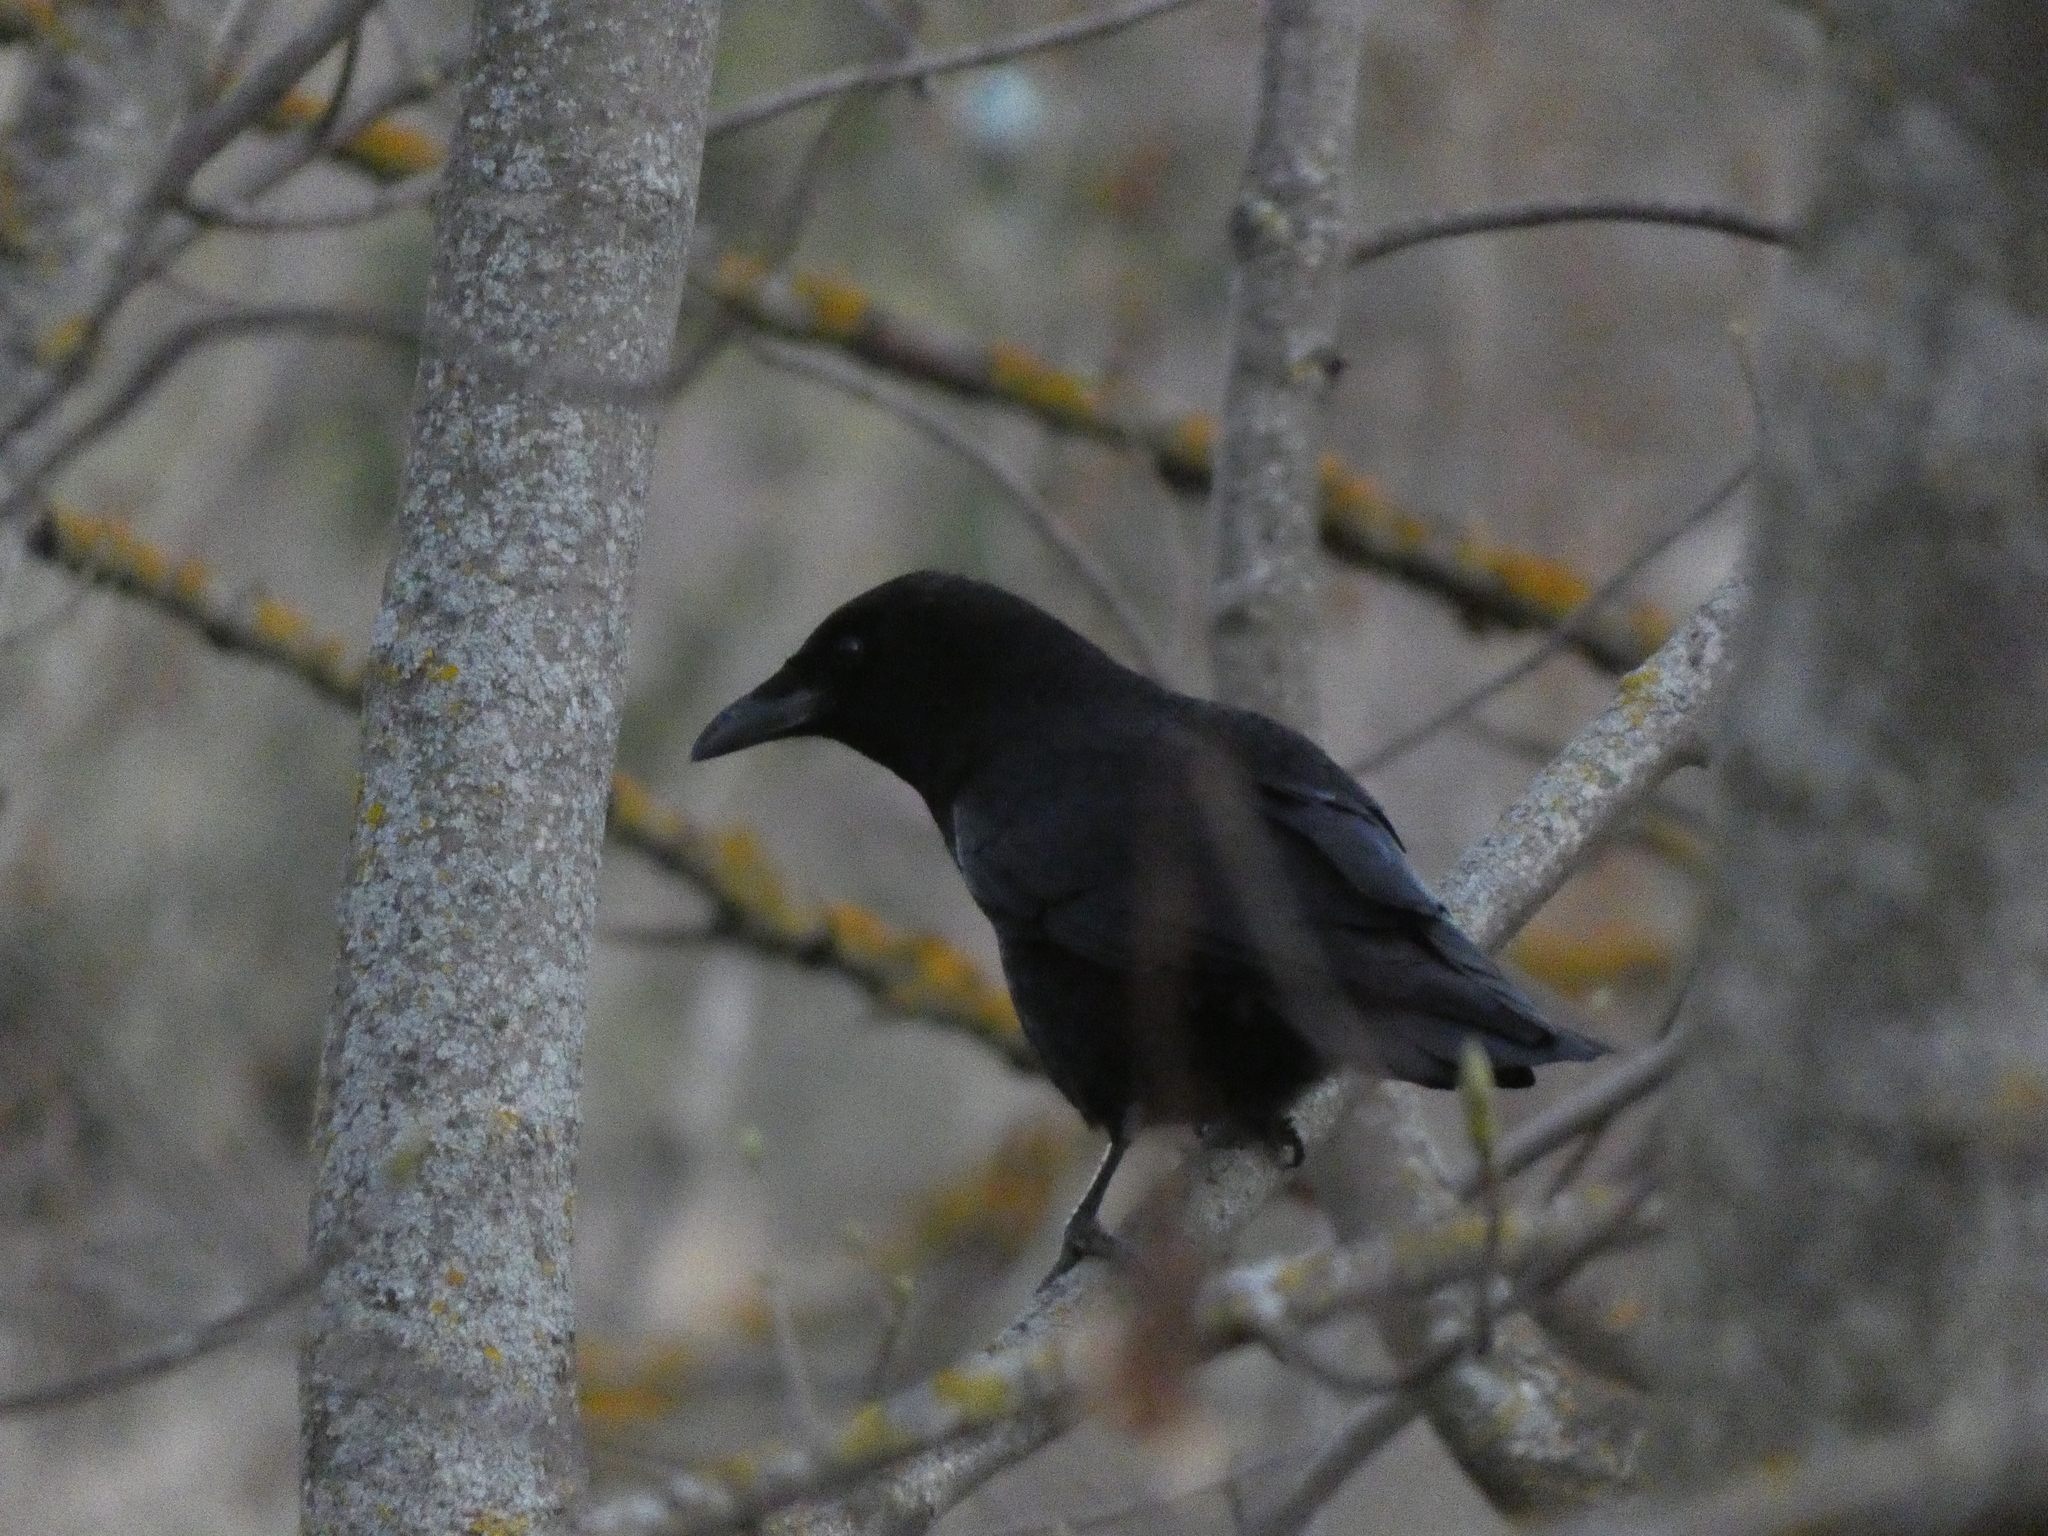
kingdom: Animalia
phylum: Chordata
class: Aves
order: Passeriformes
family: Corvidae
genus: Corvus
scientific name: Corvus corone
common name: Carrion crow
